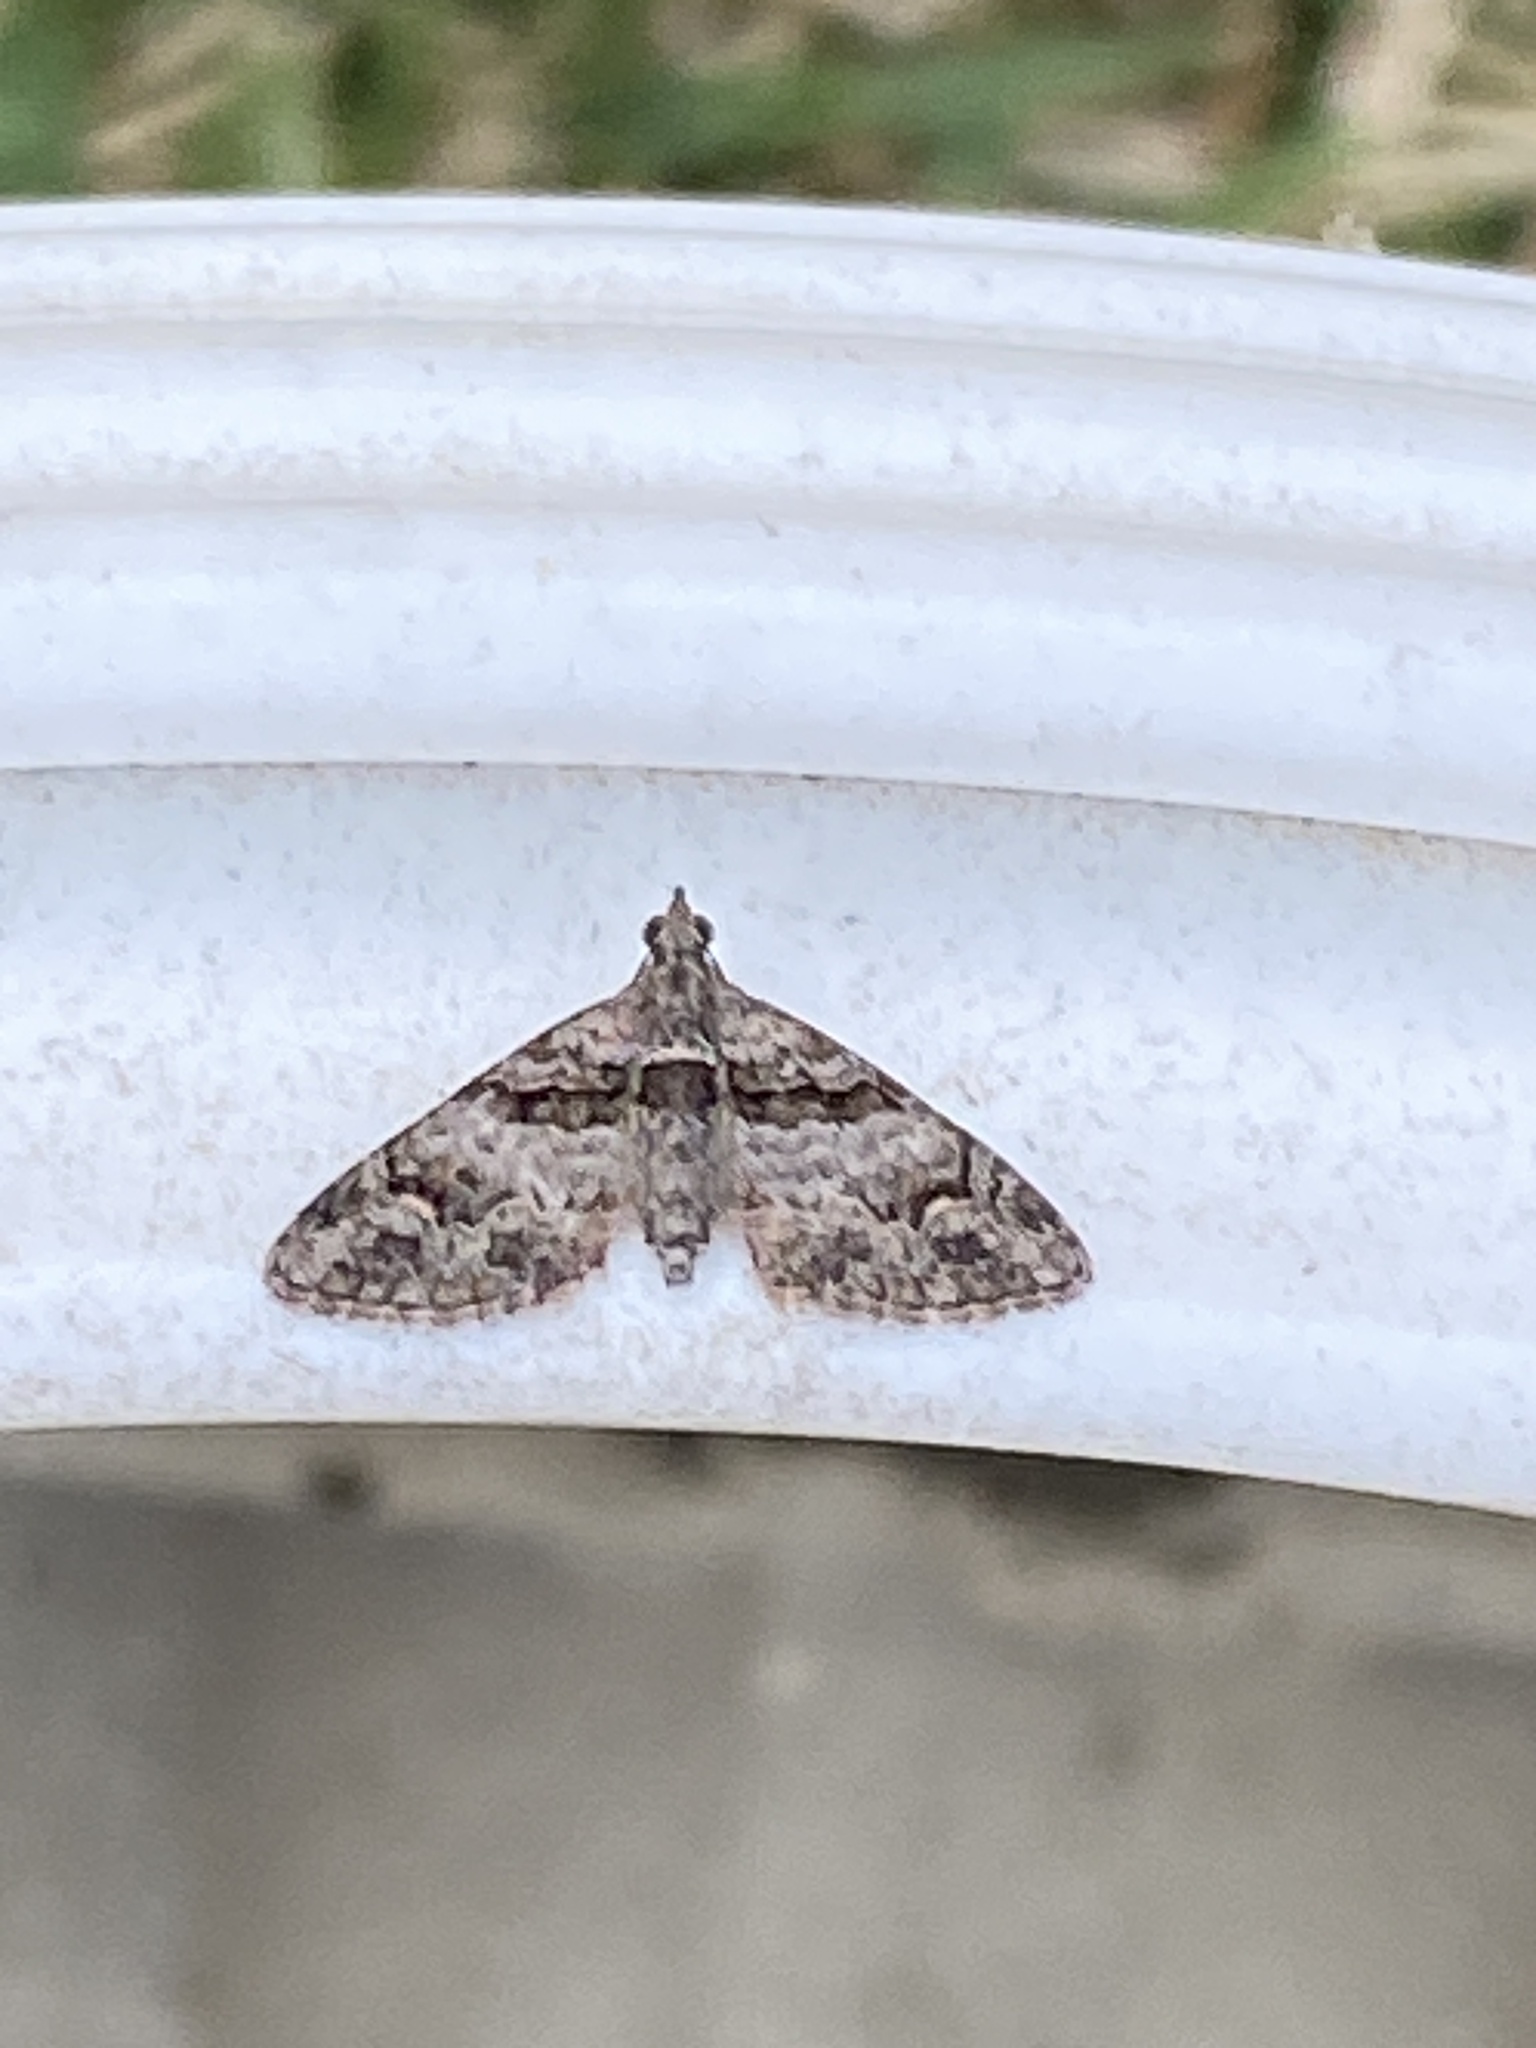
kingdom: Animalia
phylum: Arthropoda
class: Insecta
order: Lepidoptera
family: Geometridae
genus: Phrissogonus
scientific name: Phrissogonus laticostata
